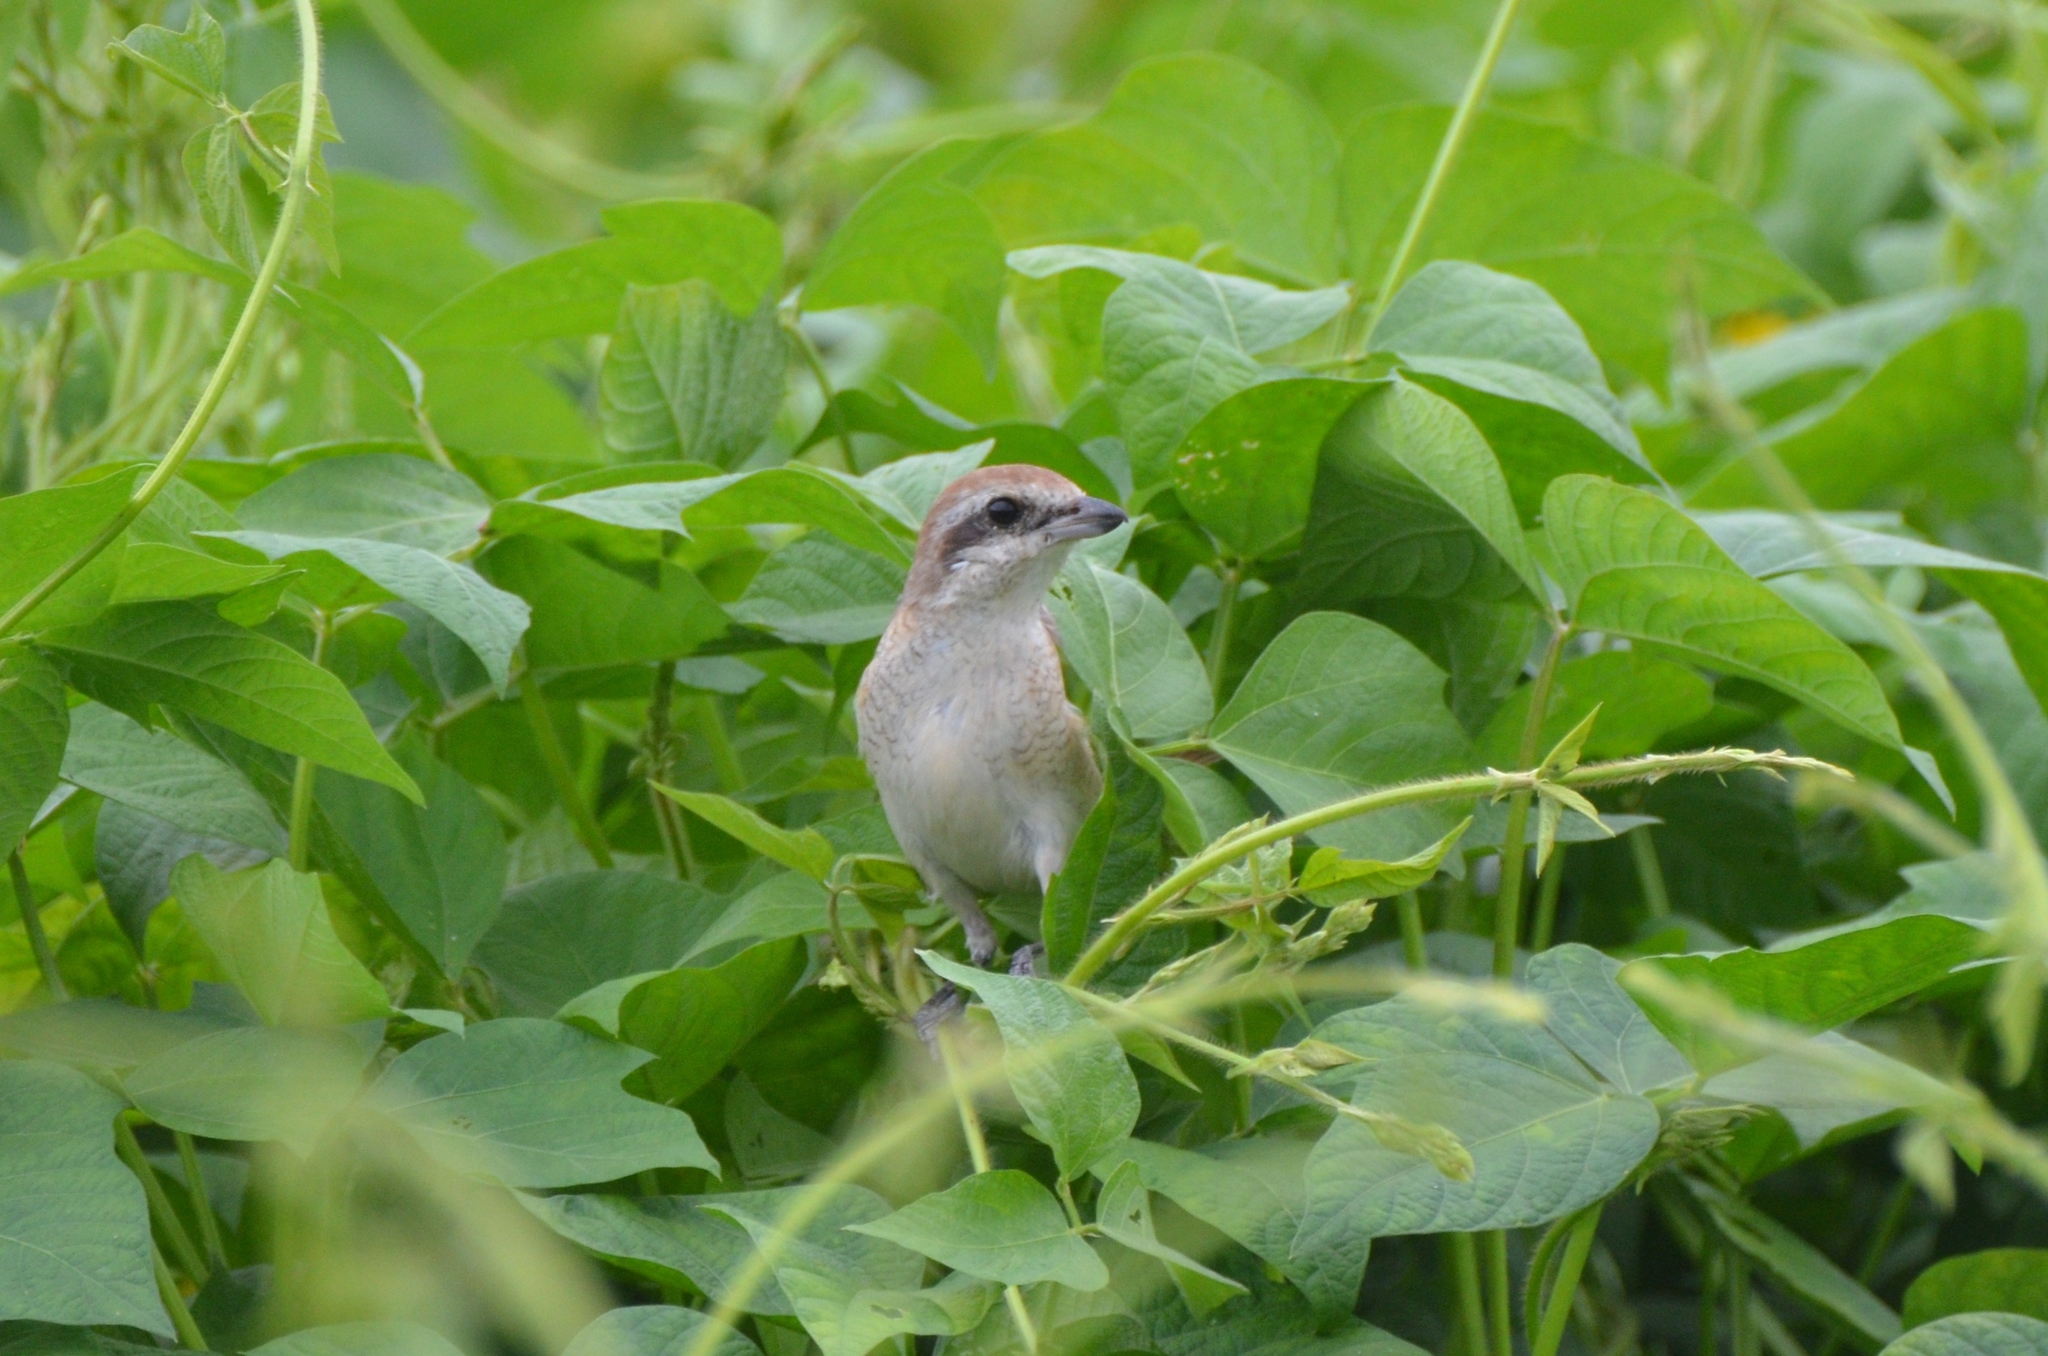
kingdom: Animalia
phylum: Chordata
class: Aves
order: Passeriformes
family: Laniidae
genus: Lanius
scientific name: Lanius cristatus
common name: Brown shrike
